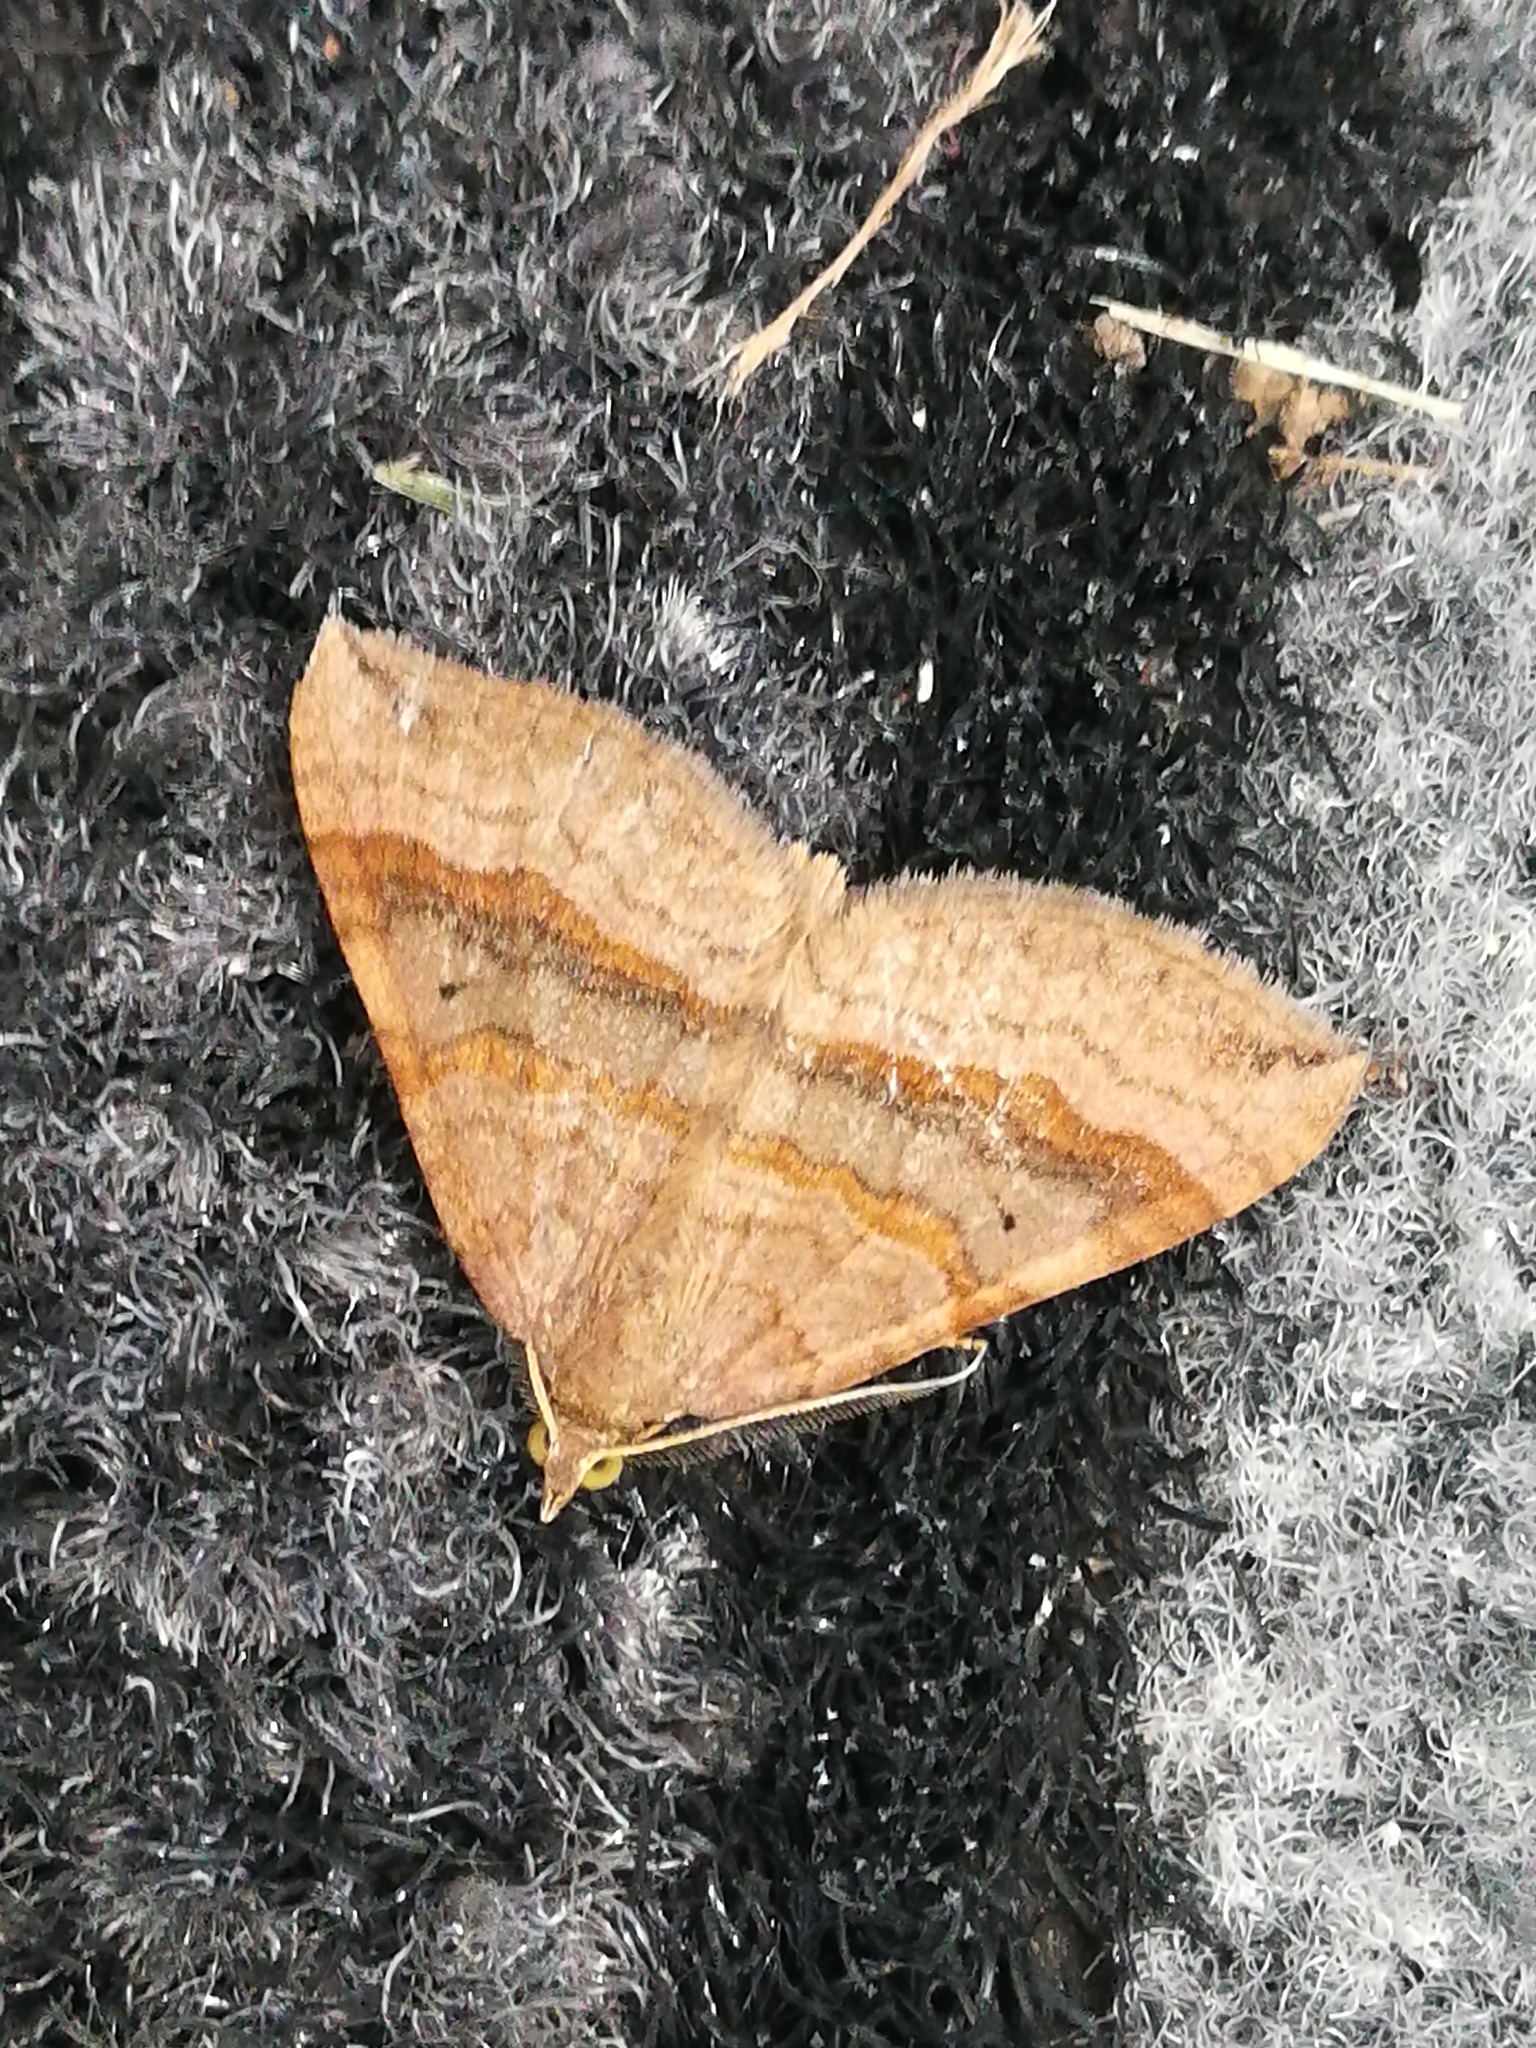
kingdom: Animalia
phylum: Arthropoda
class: Insecta
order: Lepidoptera
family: Geometridae
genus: Scotopteryx
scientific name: Scotopteryx chenopodiata
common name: Shaded broad-bar
